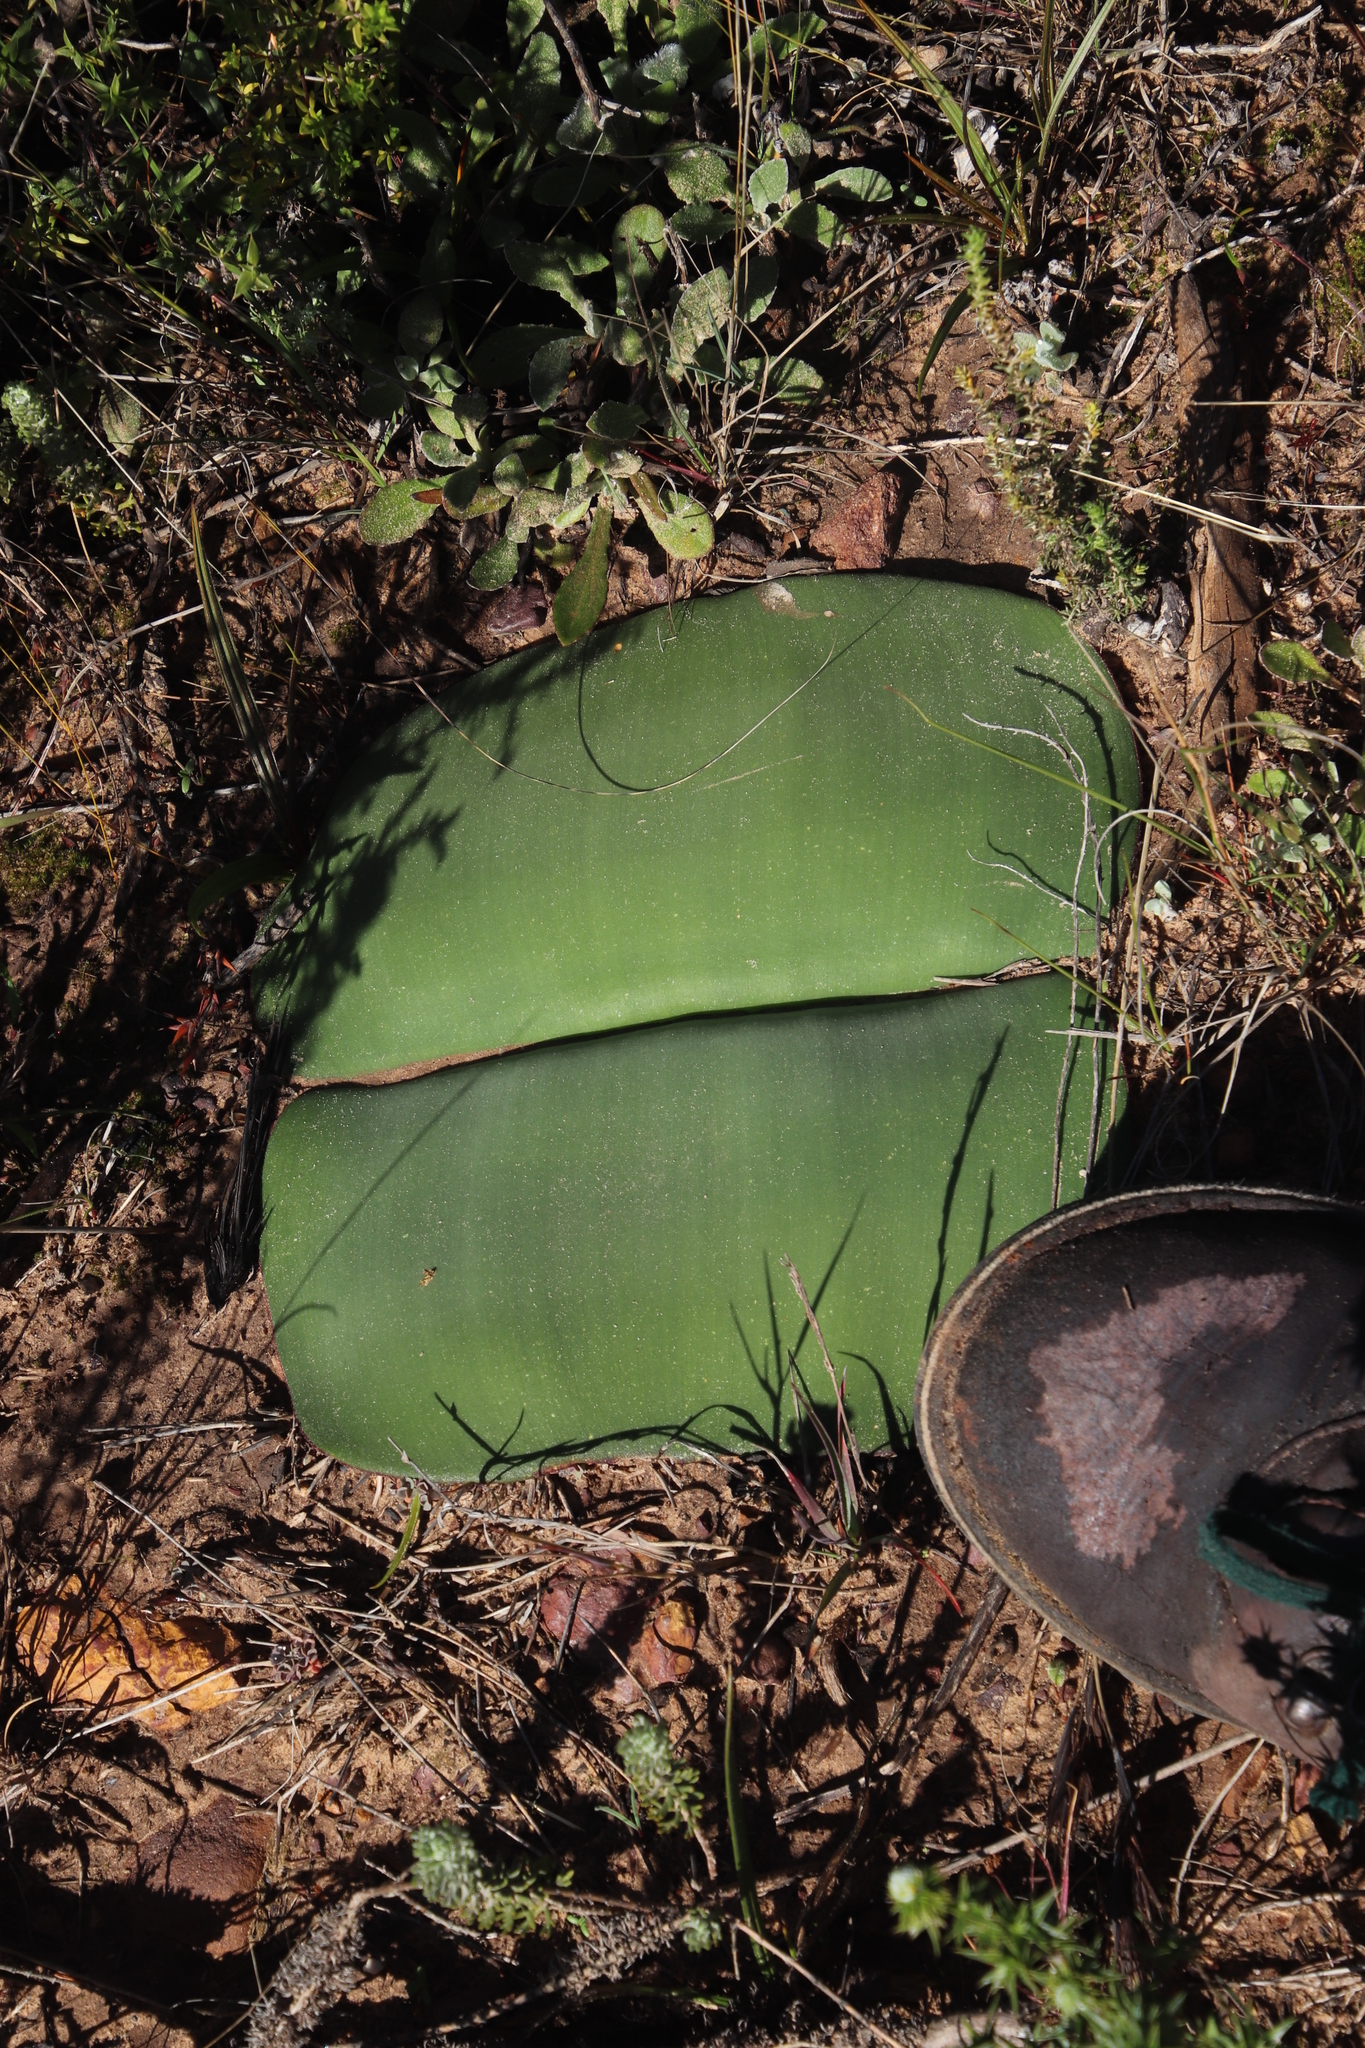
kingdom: Plantae
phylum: Tracheophyta
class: Liliopsida
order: Asparagales
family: Amaryllidaceae
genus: Haemanthus
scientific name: Haemanthus sanguineus
